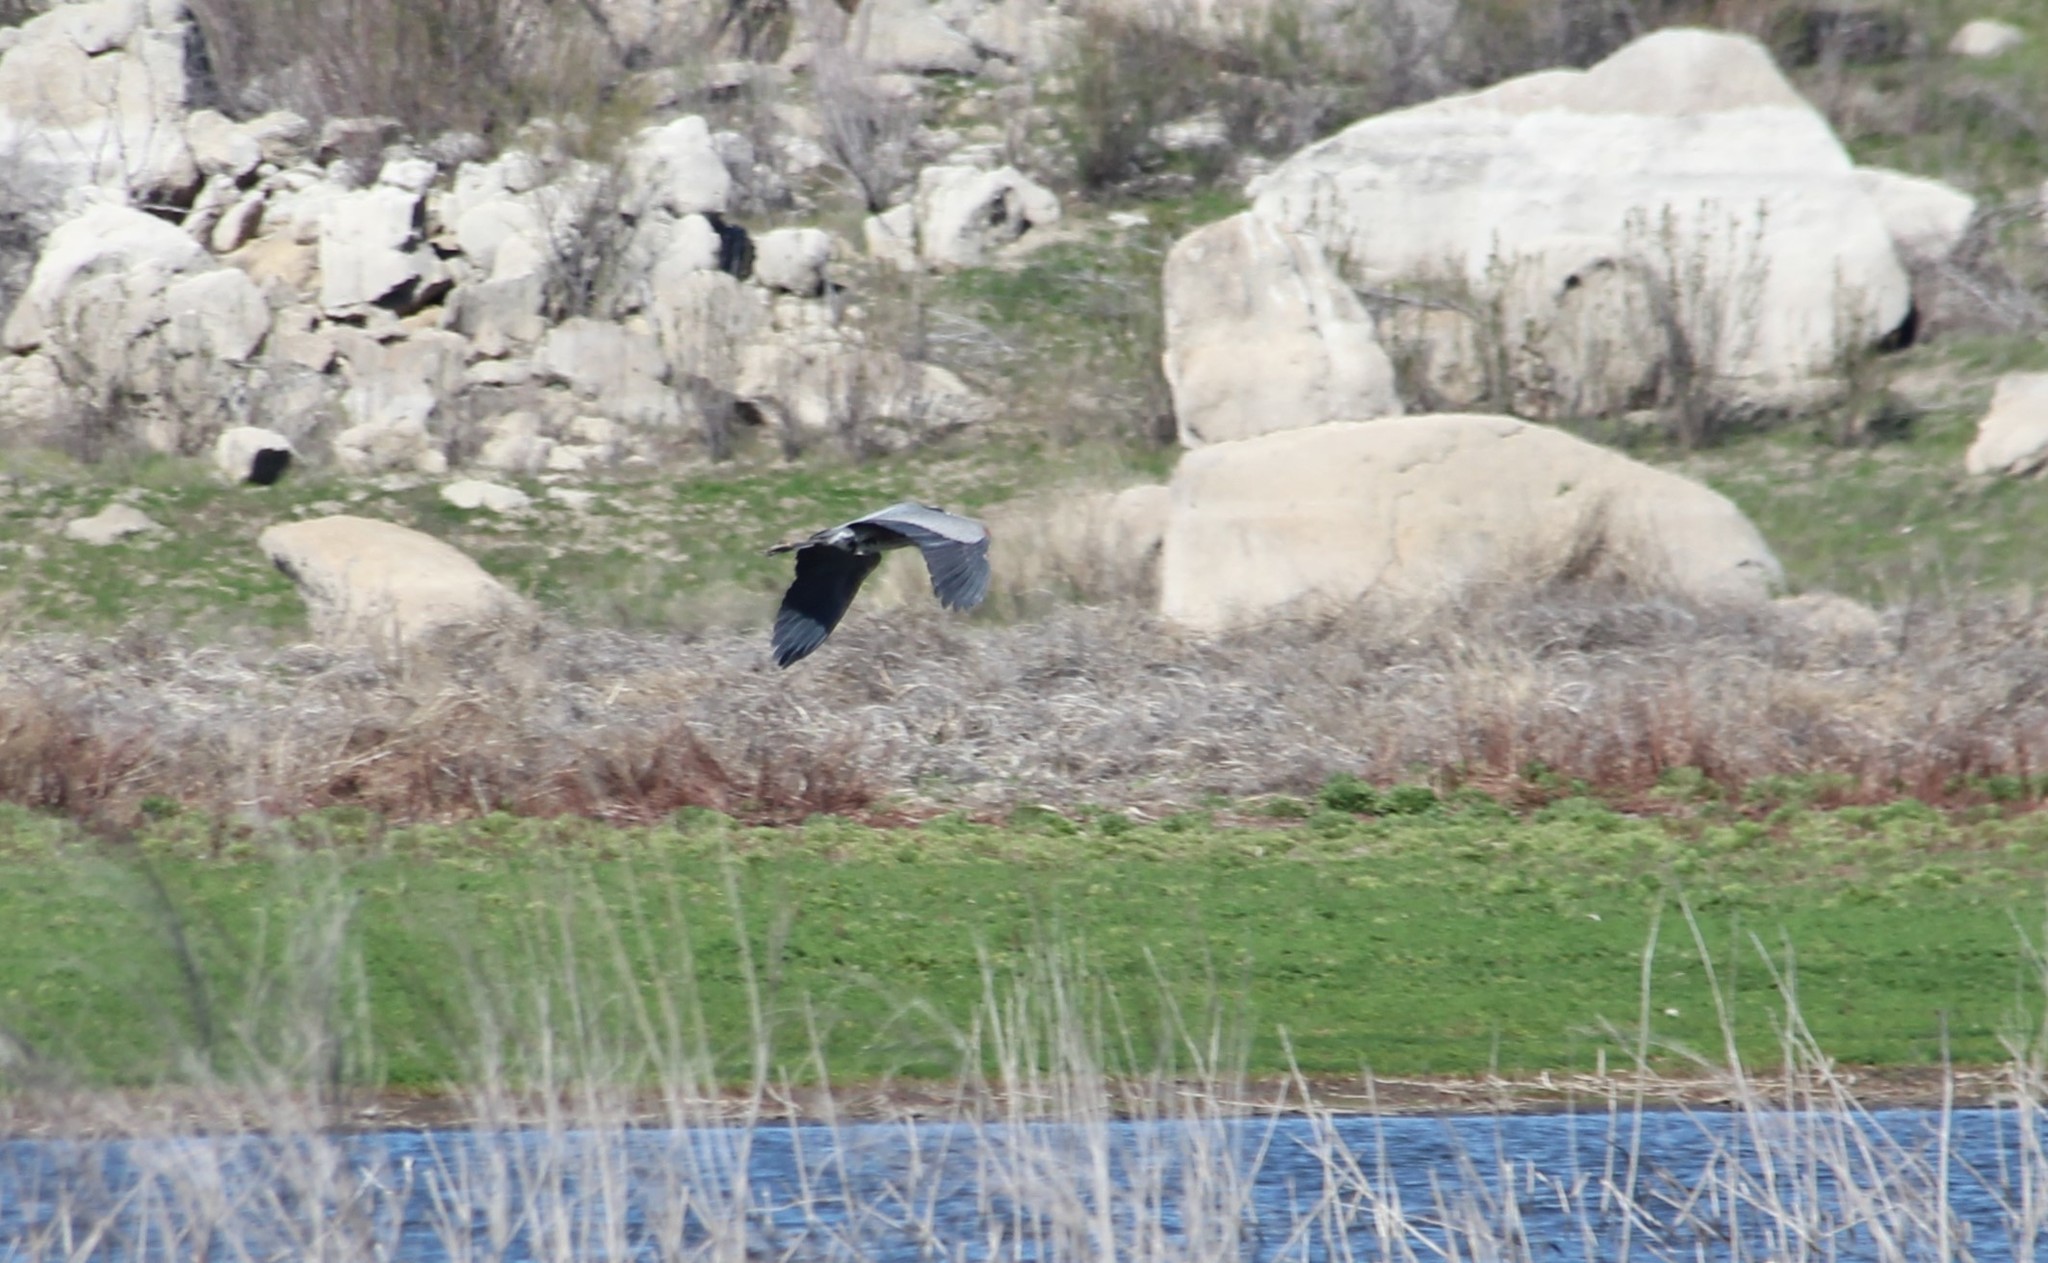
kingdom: Animalia
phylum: Chordata
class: Aves
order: Pelecaniformes
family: Ardeidae
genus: Ardea
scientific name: Ardea herodias
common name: Great blue heron
